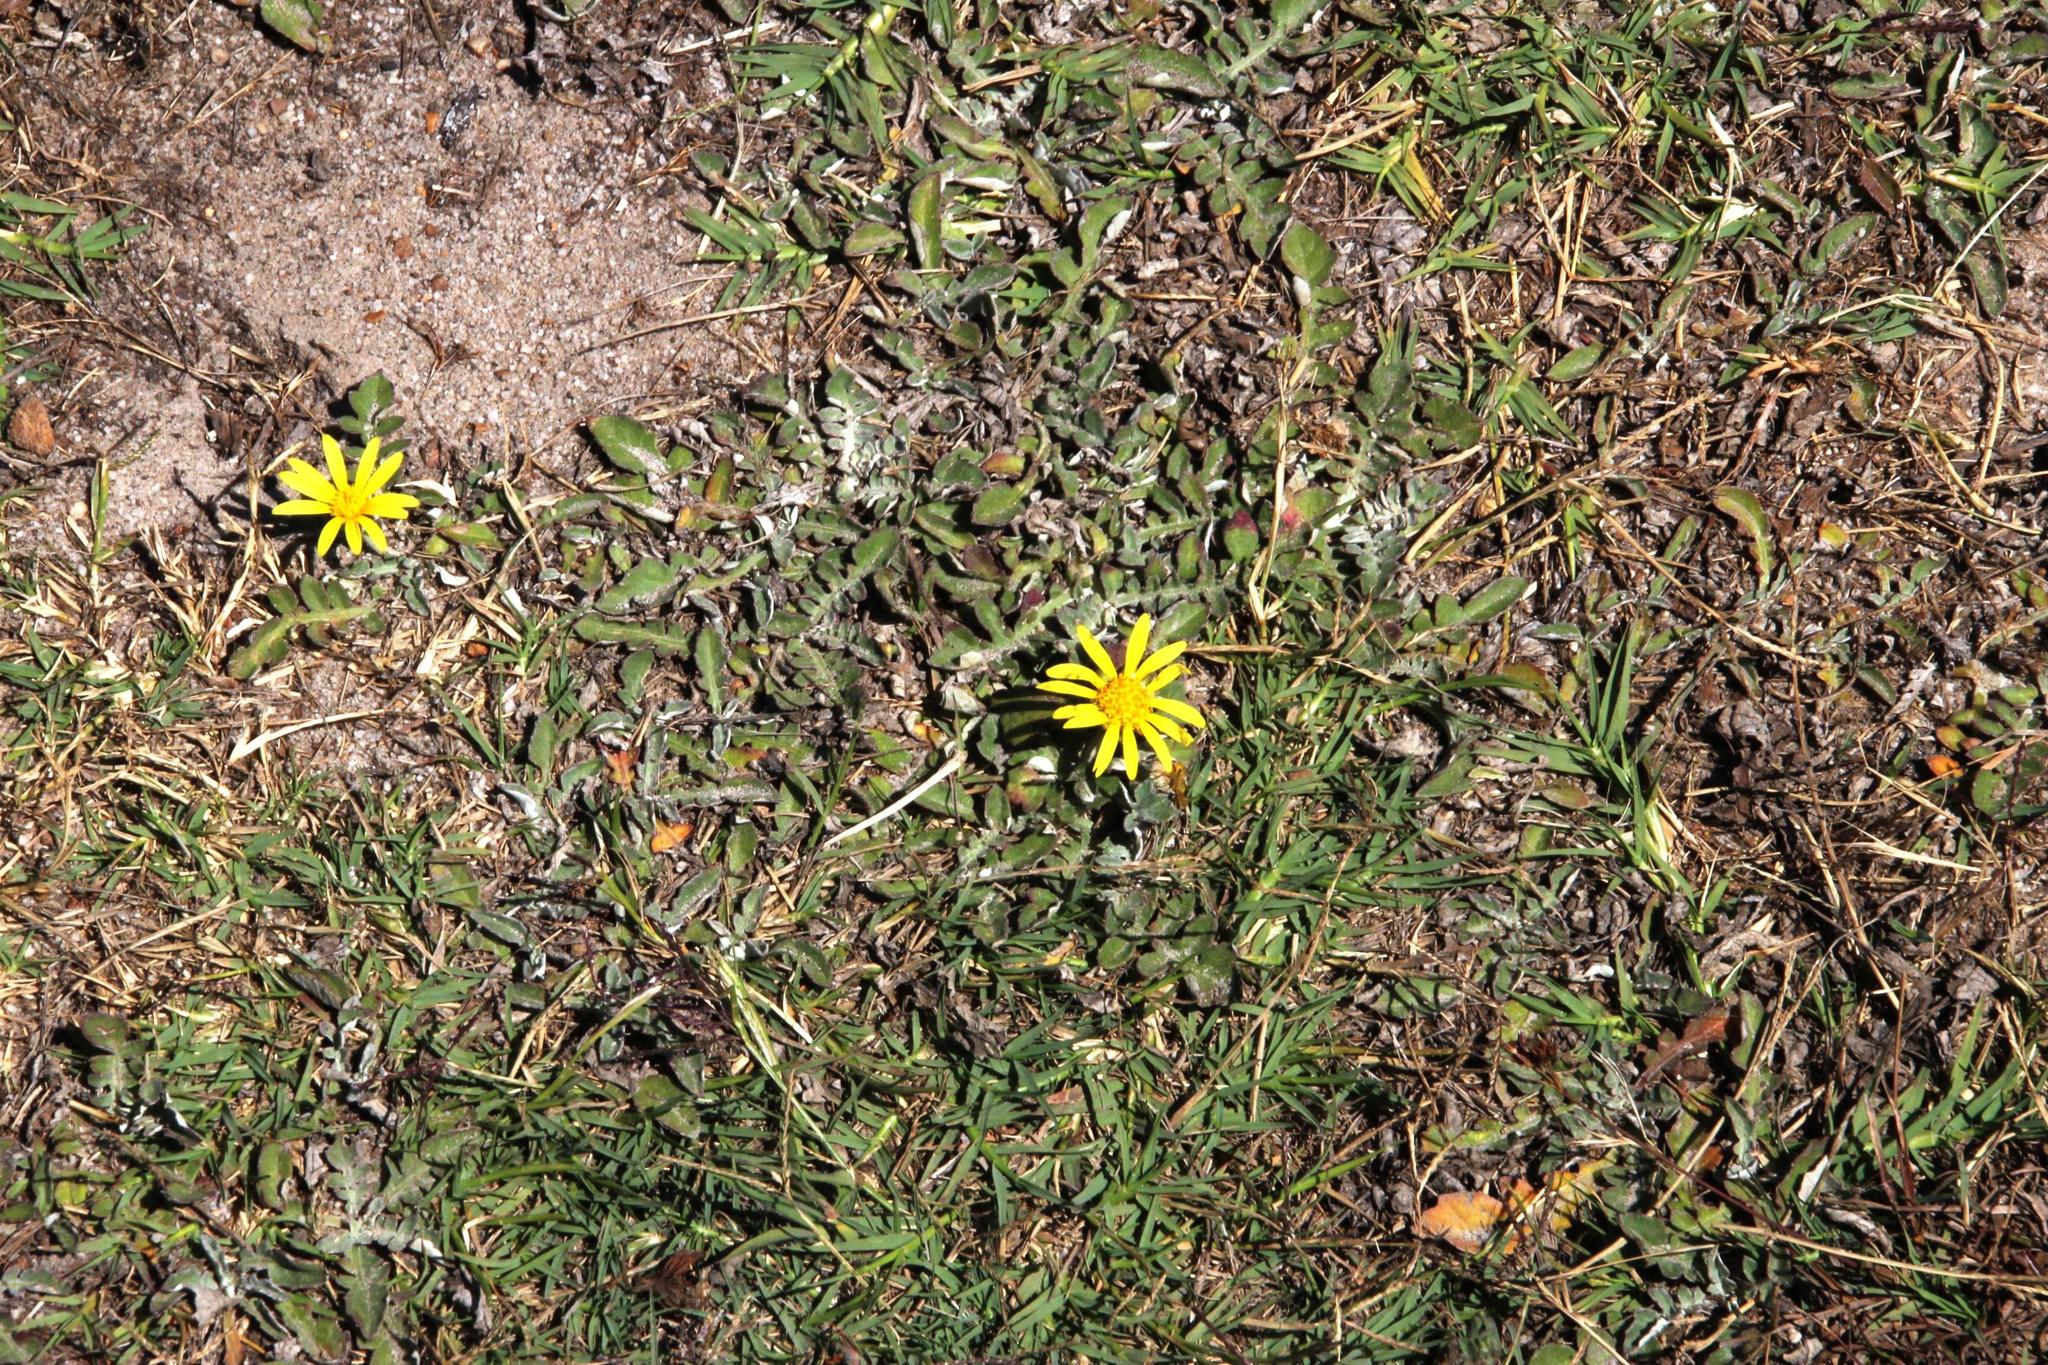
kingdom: Plantae
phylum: Tracheophyta
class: Magnoliopsida
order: Asterales
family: Asteraceae
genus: Arctotheca
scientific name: Arctotheca prostrata
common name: Capeweed
